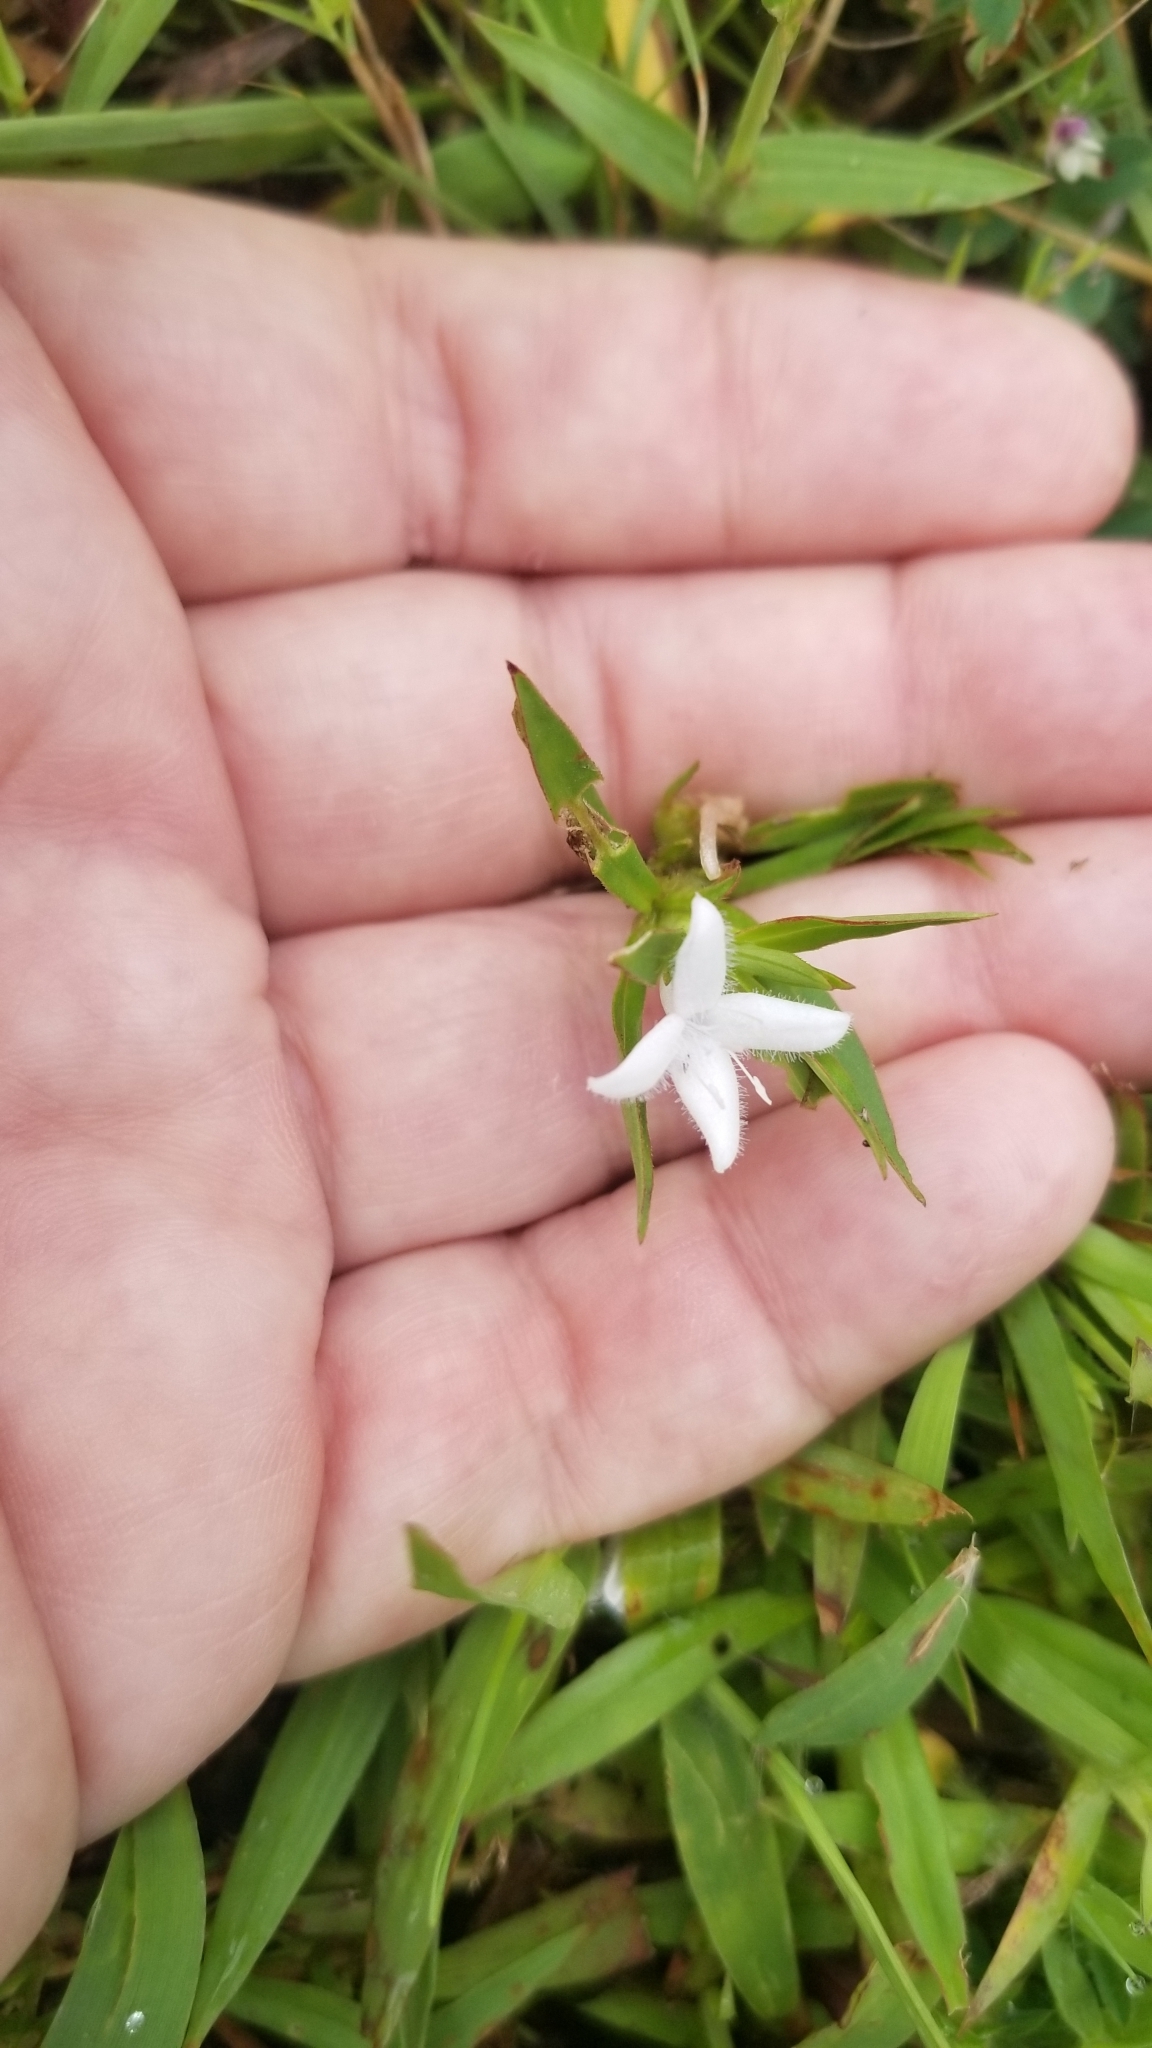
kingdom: Plantae
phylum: Tracheophyta
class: Magnoliopsida
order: Gentianales
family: Rubiaceae
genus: Diodia
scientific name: Diodia virginiana
